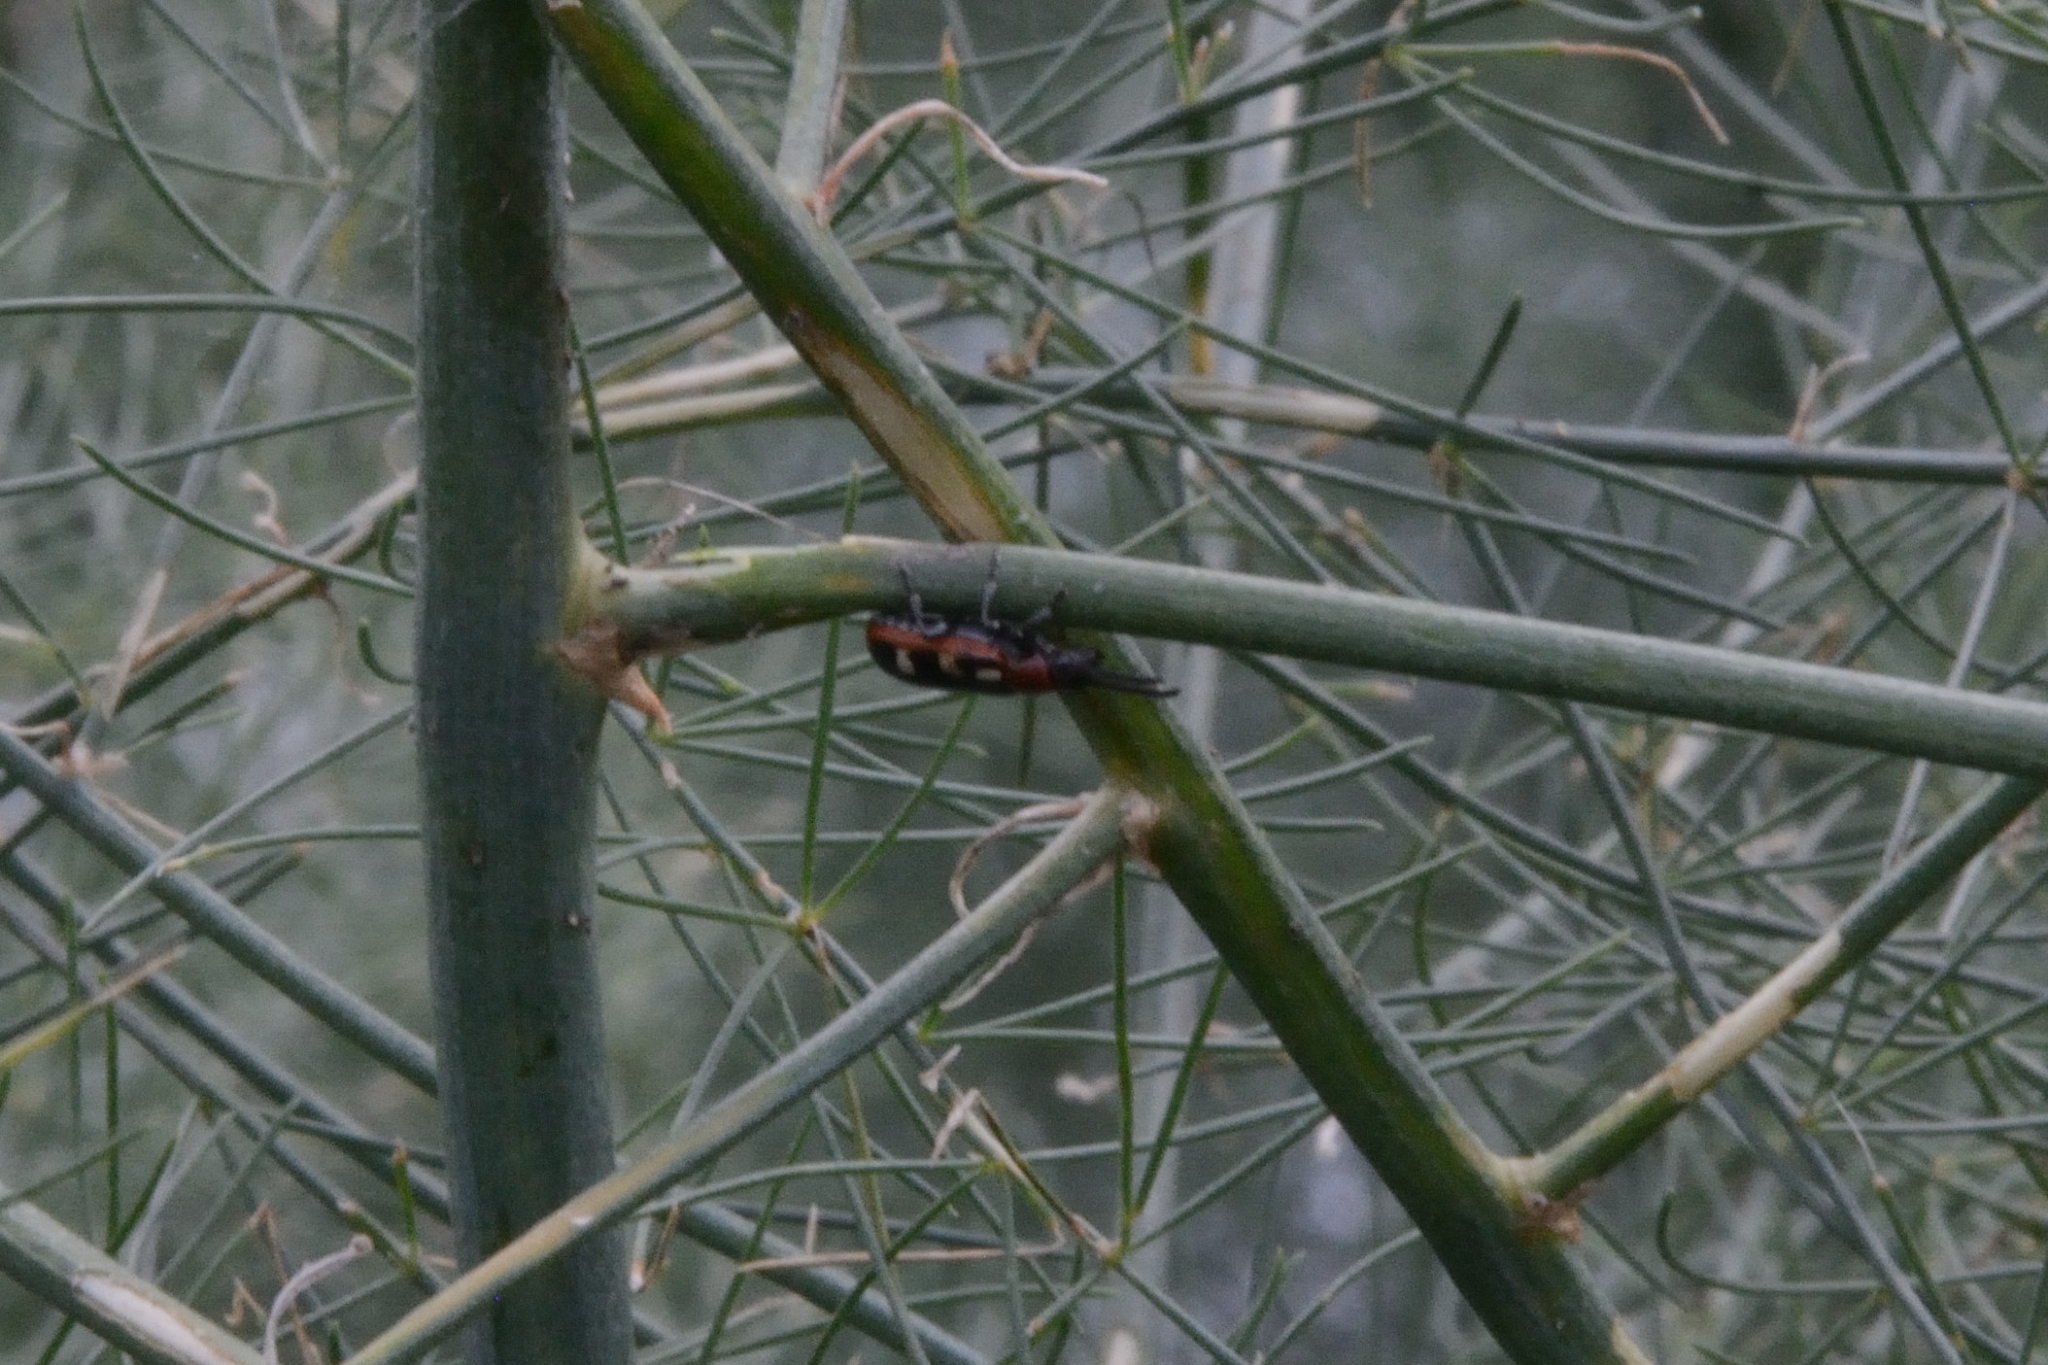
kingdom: Animalia
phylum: Arthropoda
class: Insecta
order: Coleoptera
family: Chrysomelidae
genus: Crioceris
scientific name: Crioceris asparagi
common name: Asparagus beetle
